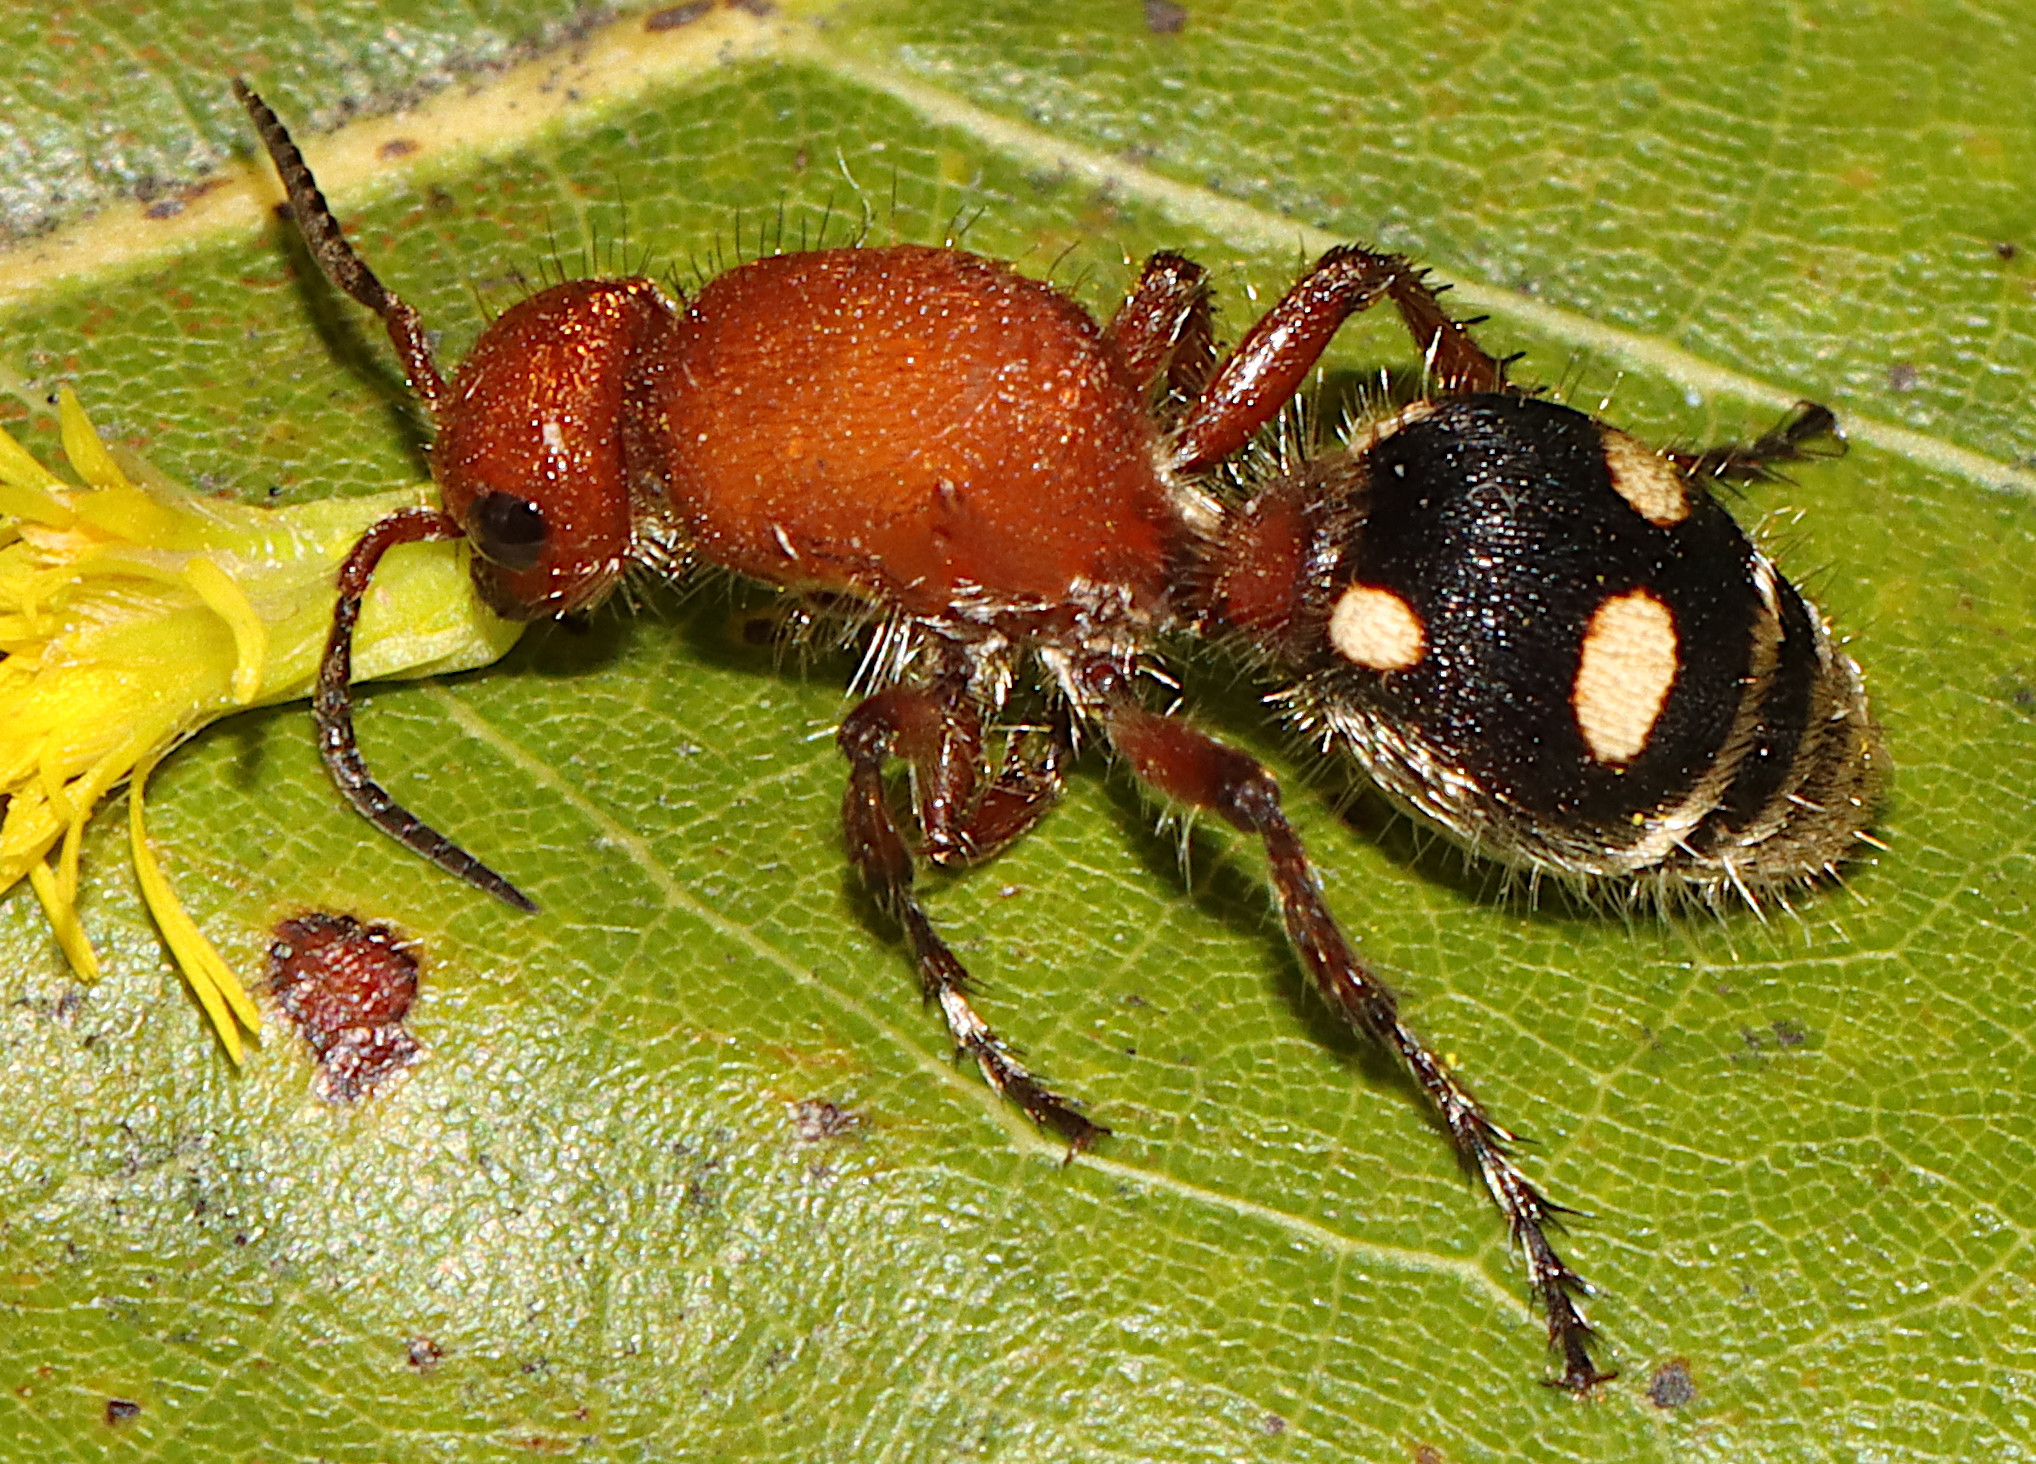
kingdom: Animalia
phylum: Arthropoda
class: Insecta
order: Hymenoptera
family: Mutillidae
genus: Dasymutilla
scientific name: Dasymutilla
